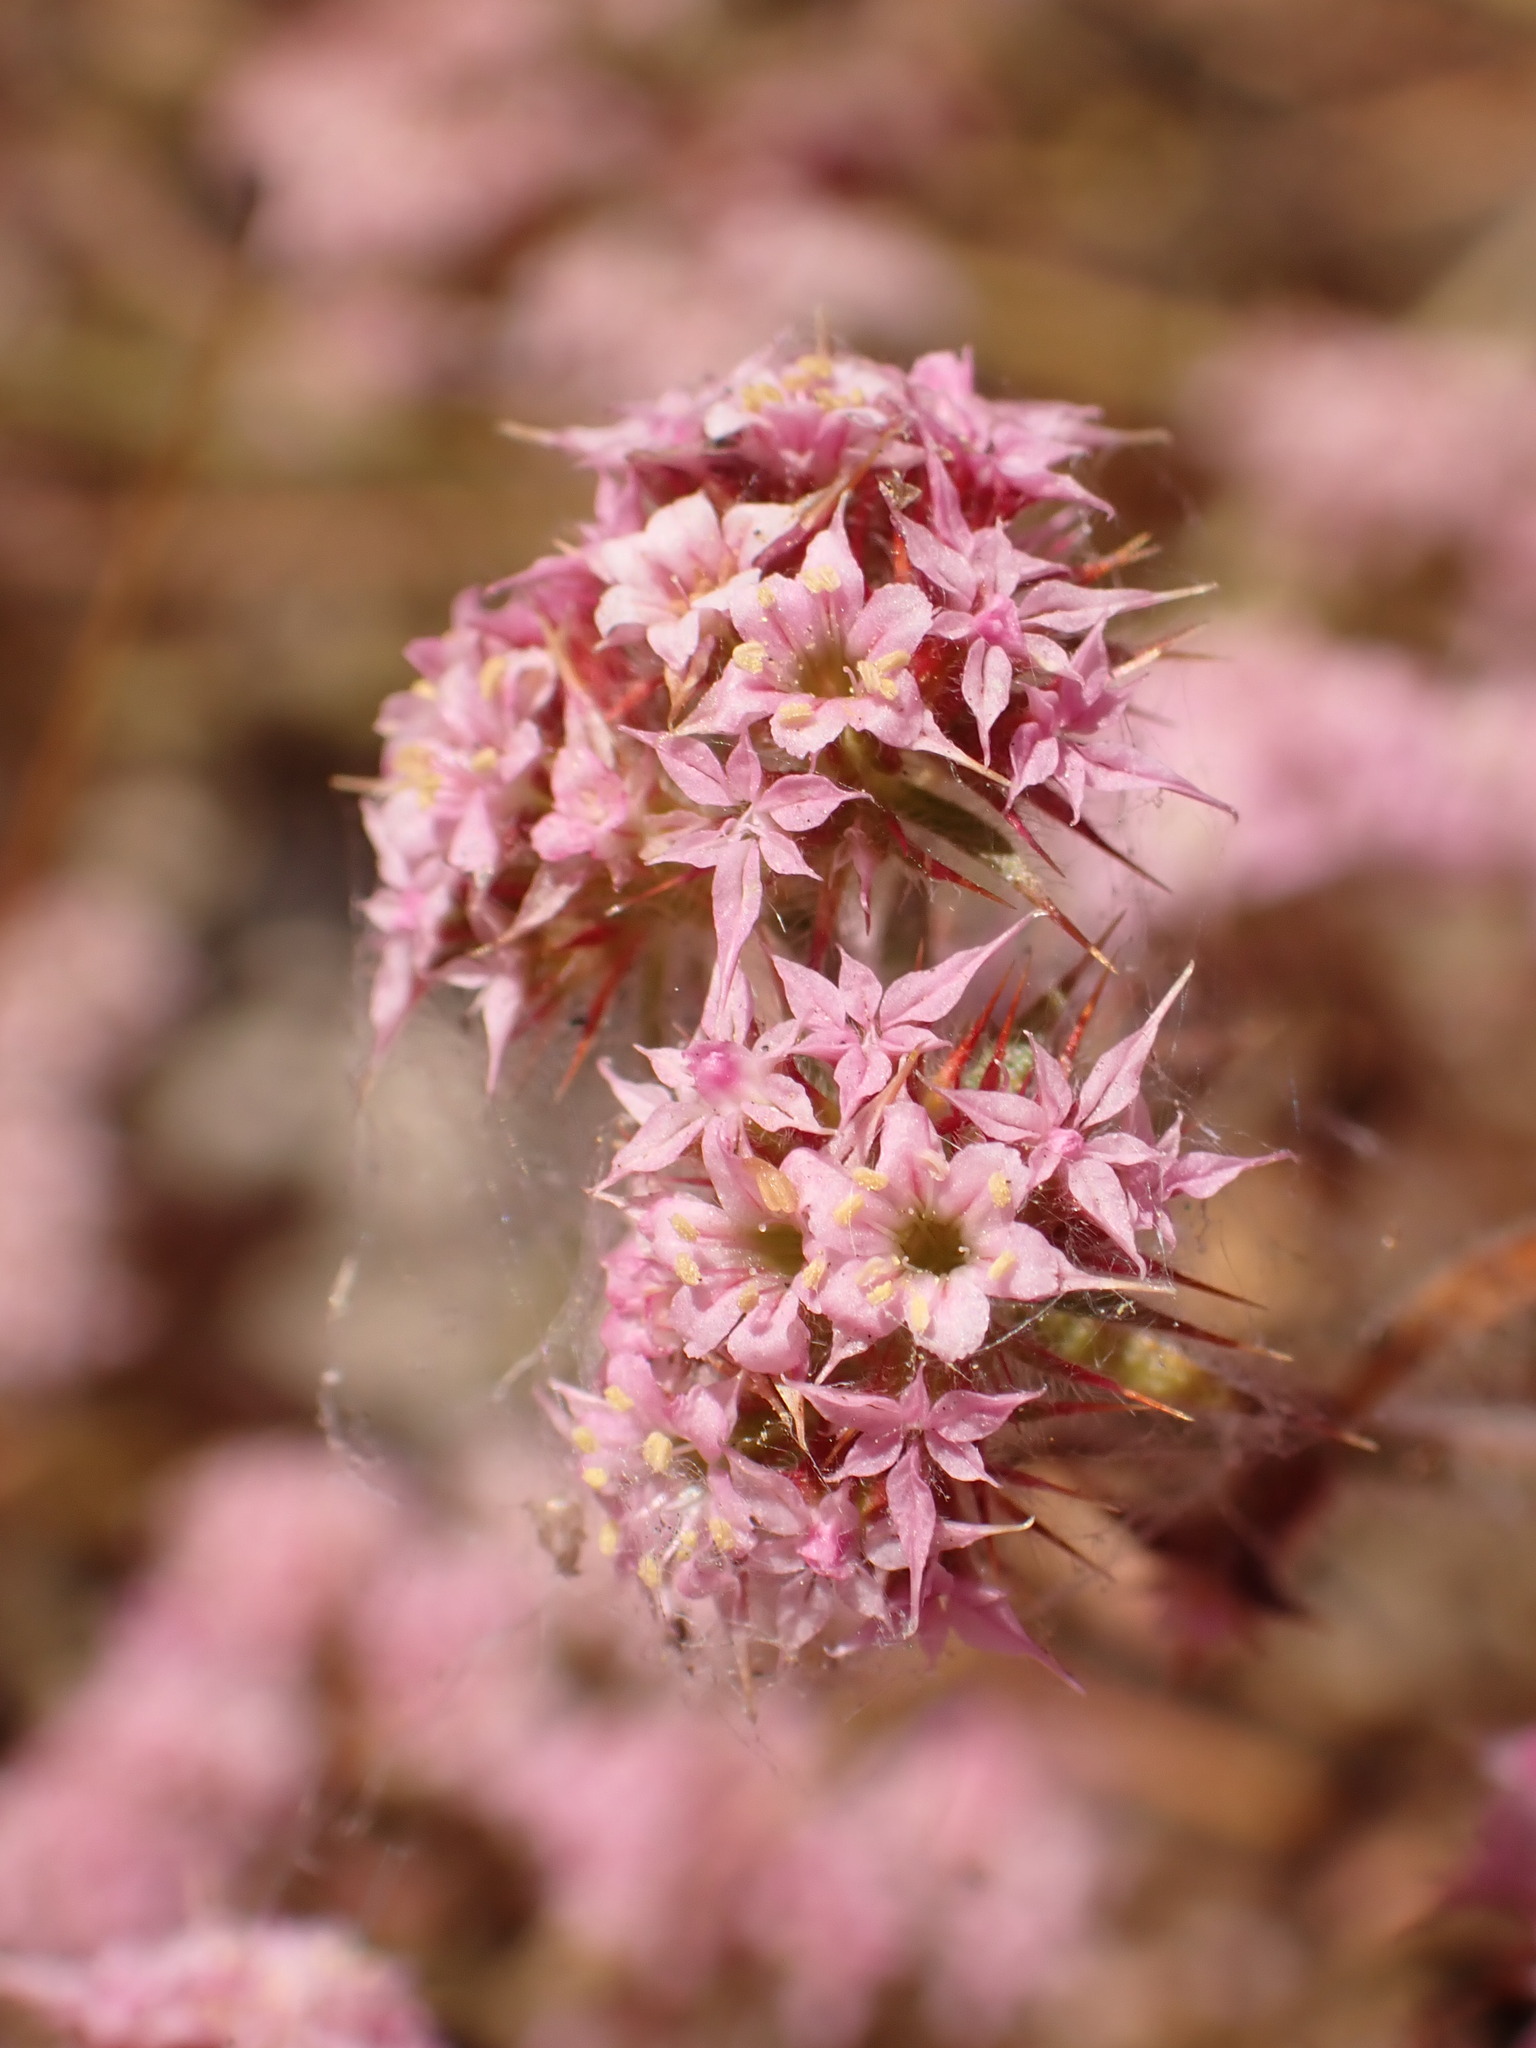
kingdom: Plantae
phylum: Tracheophyta
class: Magnoliopsida
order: Caryophyllales
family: Polygonaceae
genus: Chorizanthe
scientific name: Chorizanthe pungens
